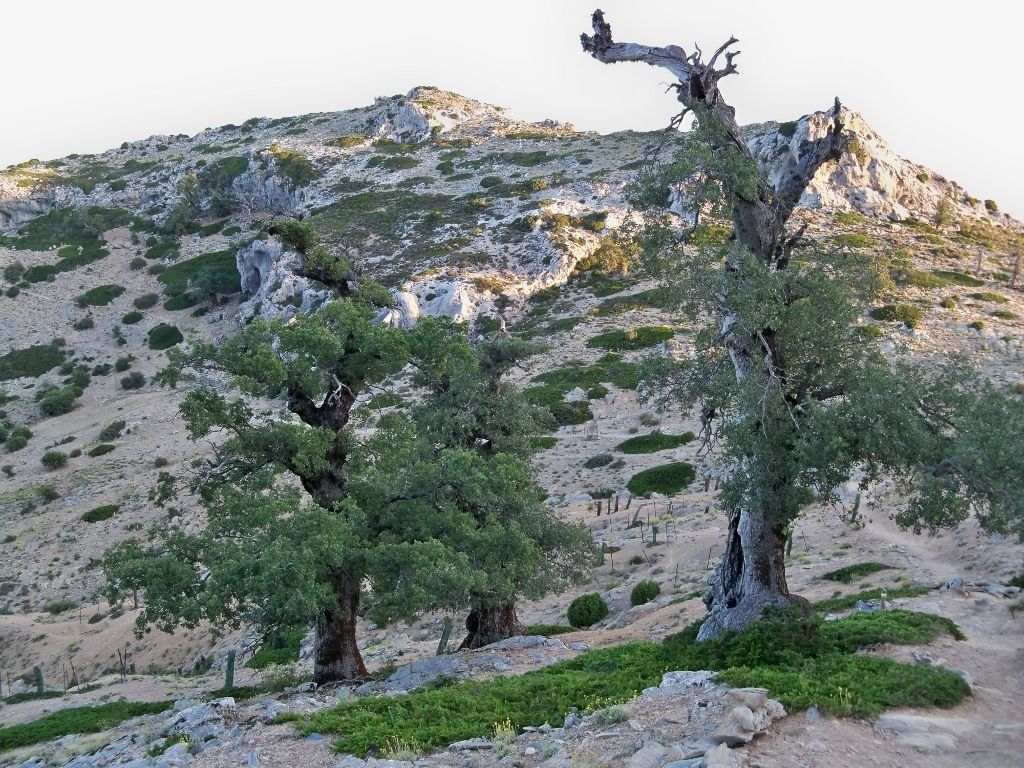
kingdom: Plantae
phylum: Tracheophyta
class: Magnoliopsida
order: Fagales
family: Fagaceae
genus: Quercus
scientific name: Quercus faginea
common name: Gall oak tree
